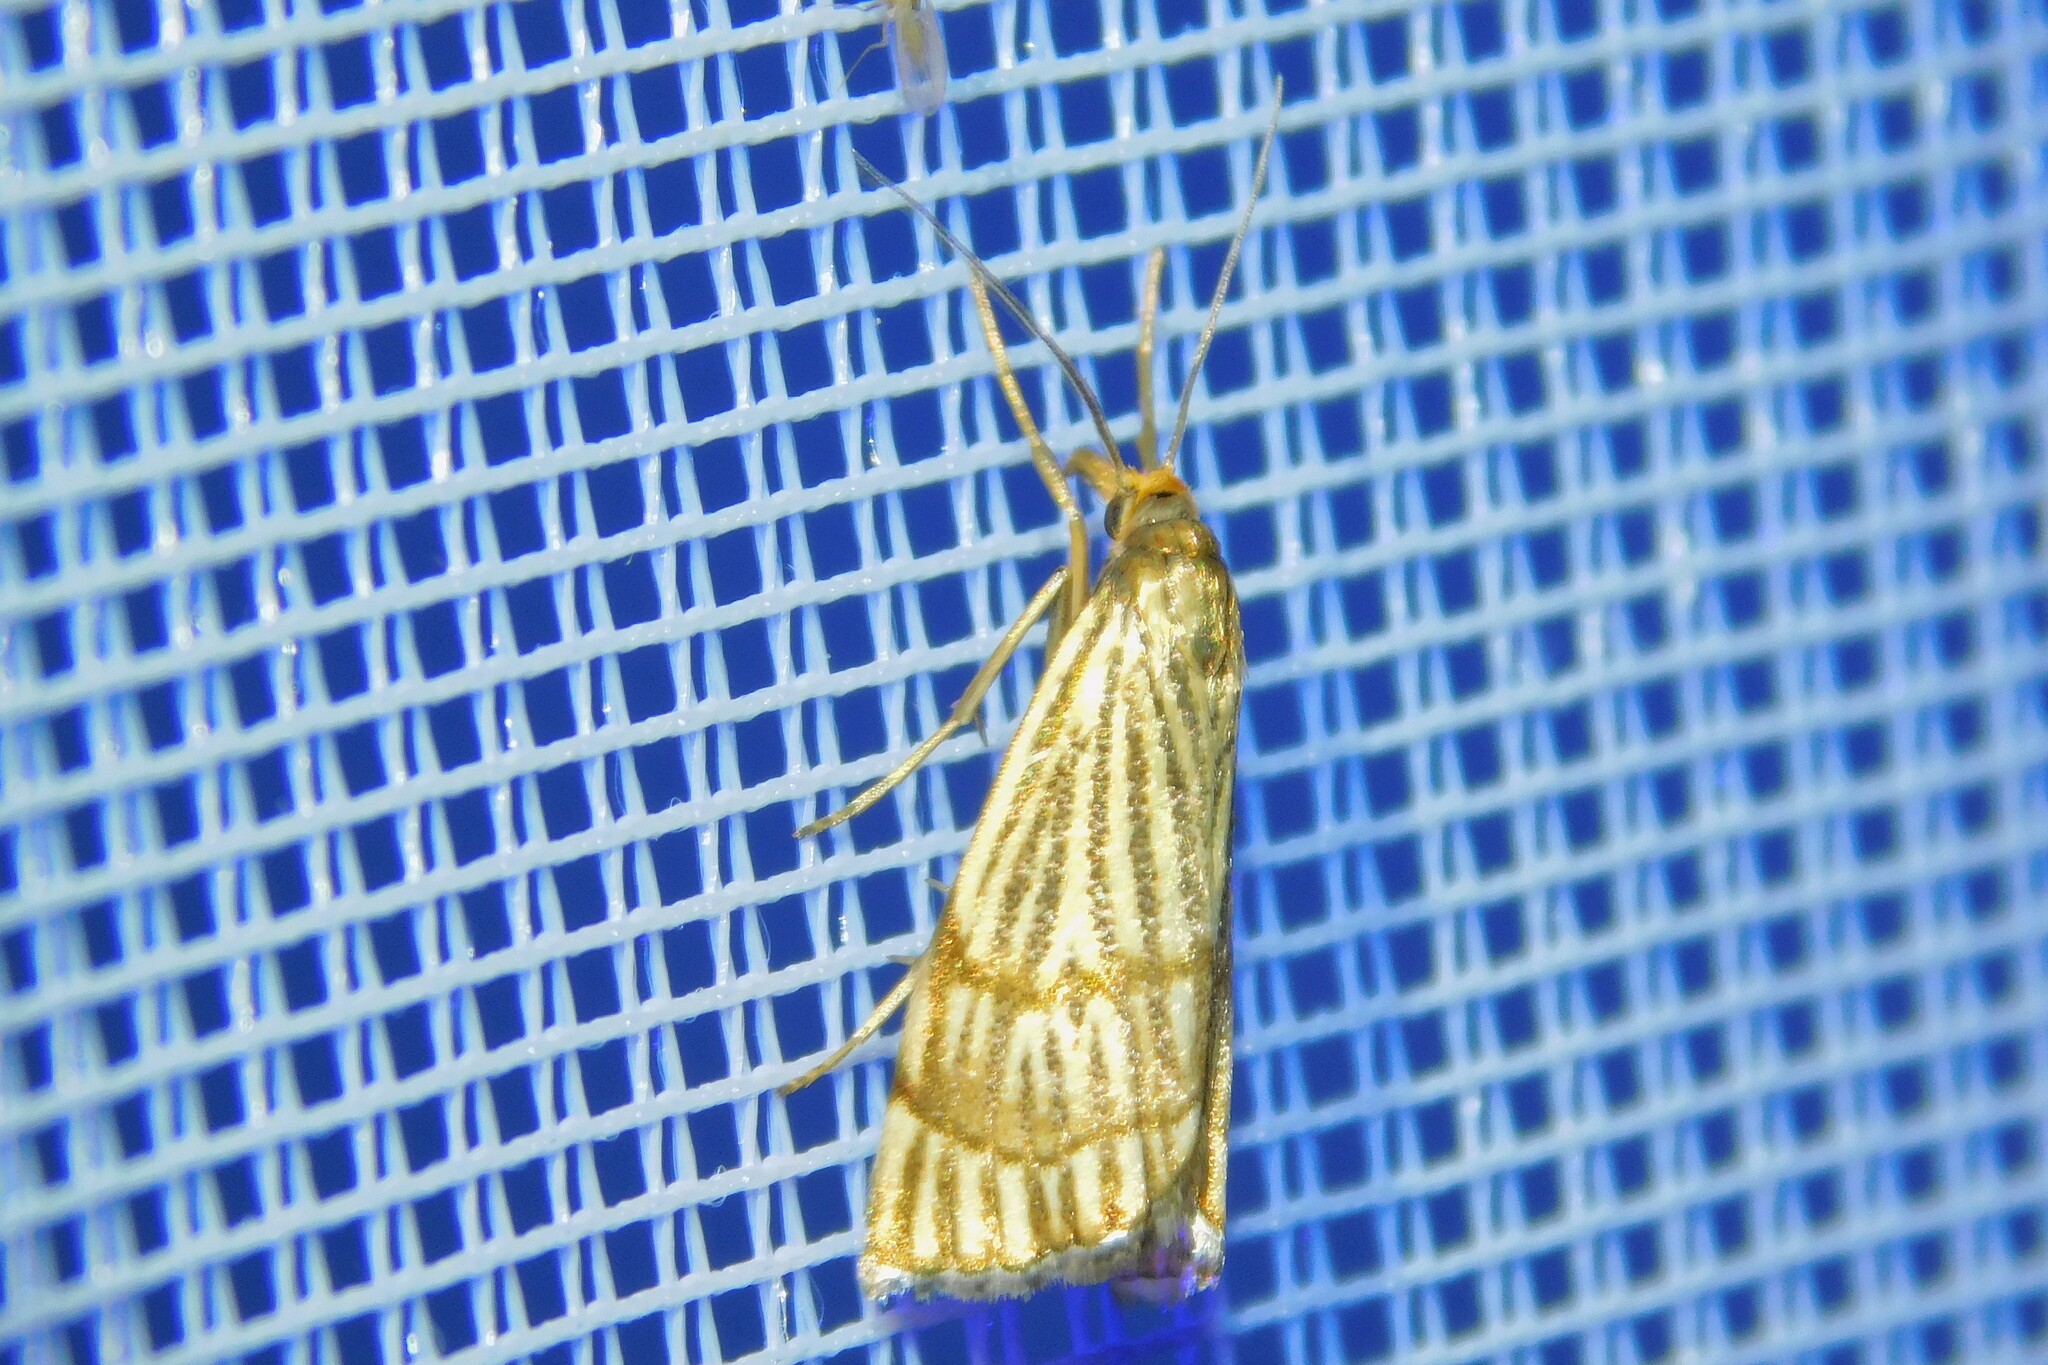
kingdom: Animalia
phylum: Arthropoda
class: Insecta
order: Lepidoptera
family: Crambidae
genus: Chrysocrambus
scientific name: Chrysocrambus linetella
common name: Orange-bar grass-veneer
